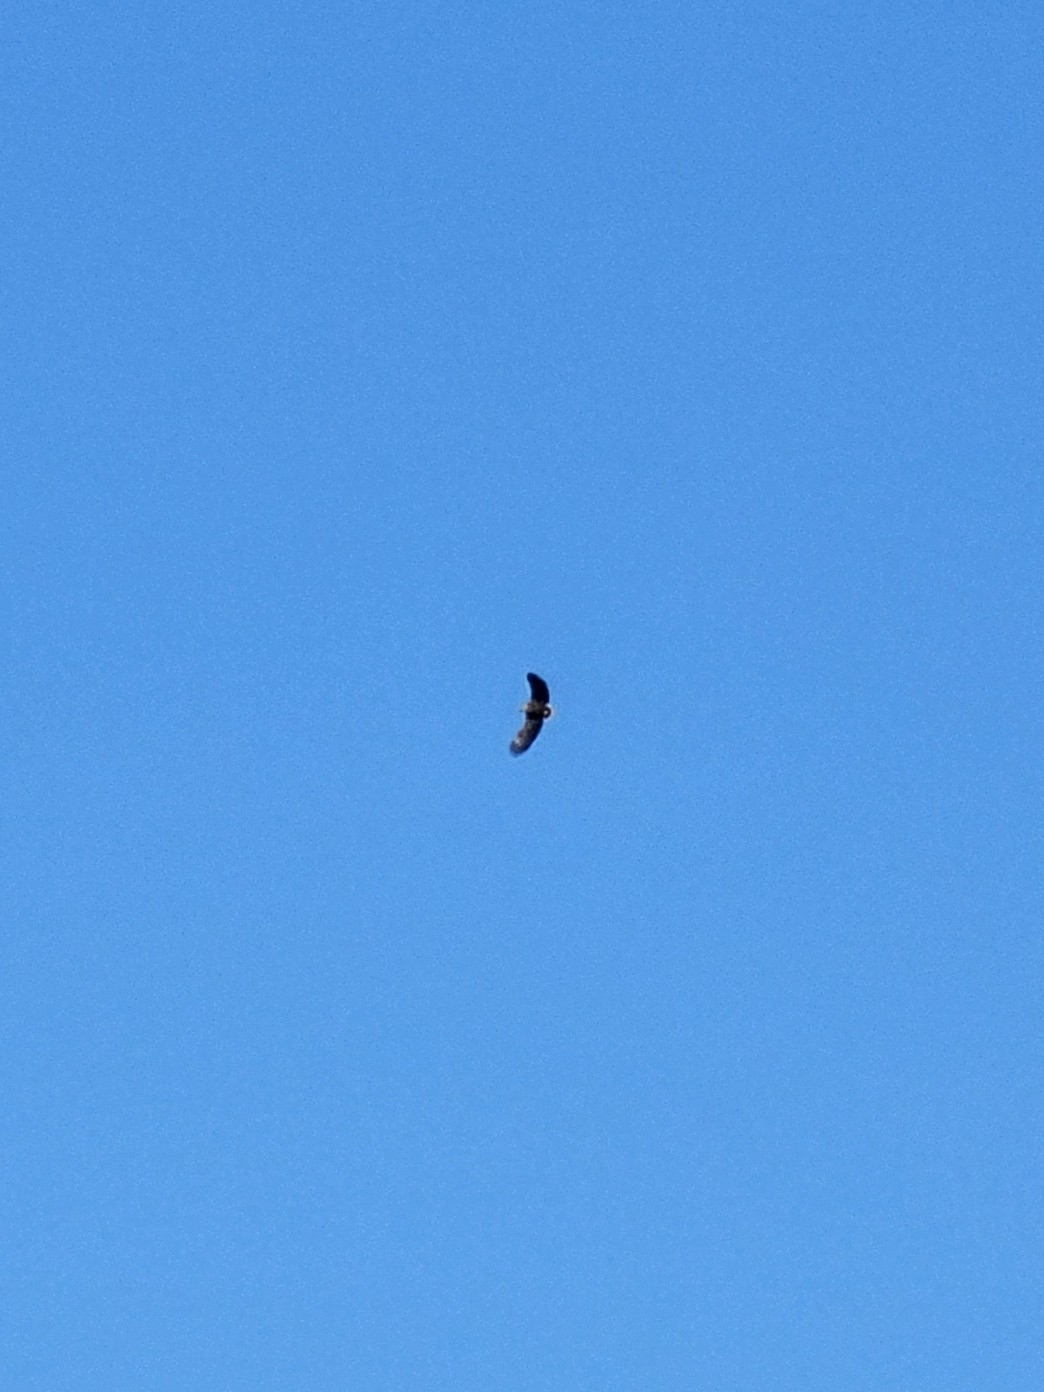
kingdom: Animalia
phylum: Chordata
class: Aves
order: Accipitriformes
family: Accipitridae
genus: Haliaeetus
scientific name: Haliaeetus albicilla
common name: White-tailed eagle
